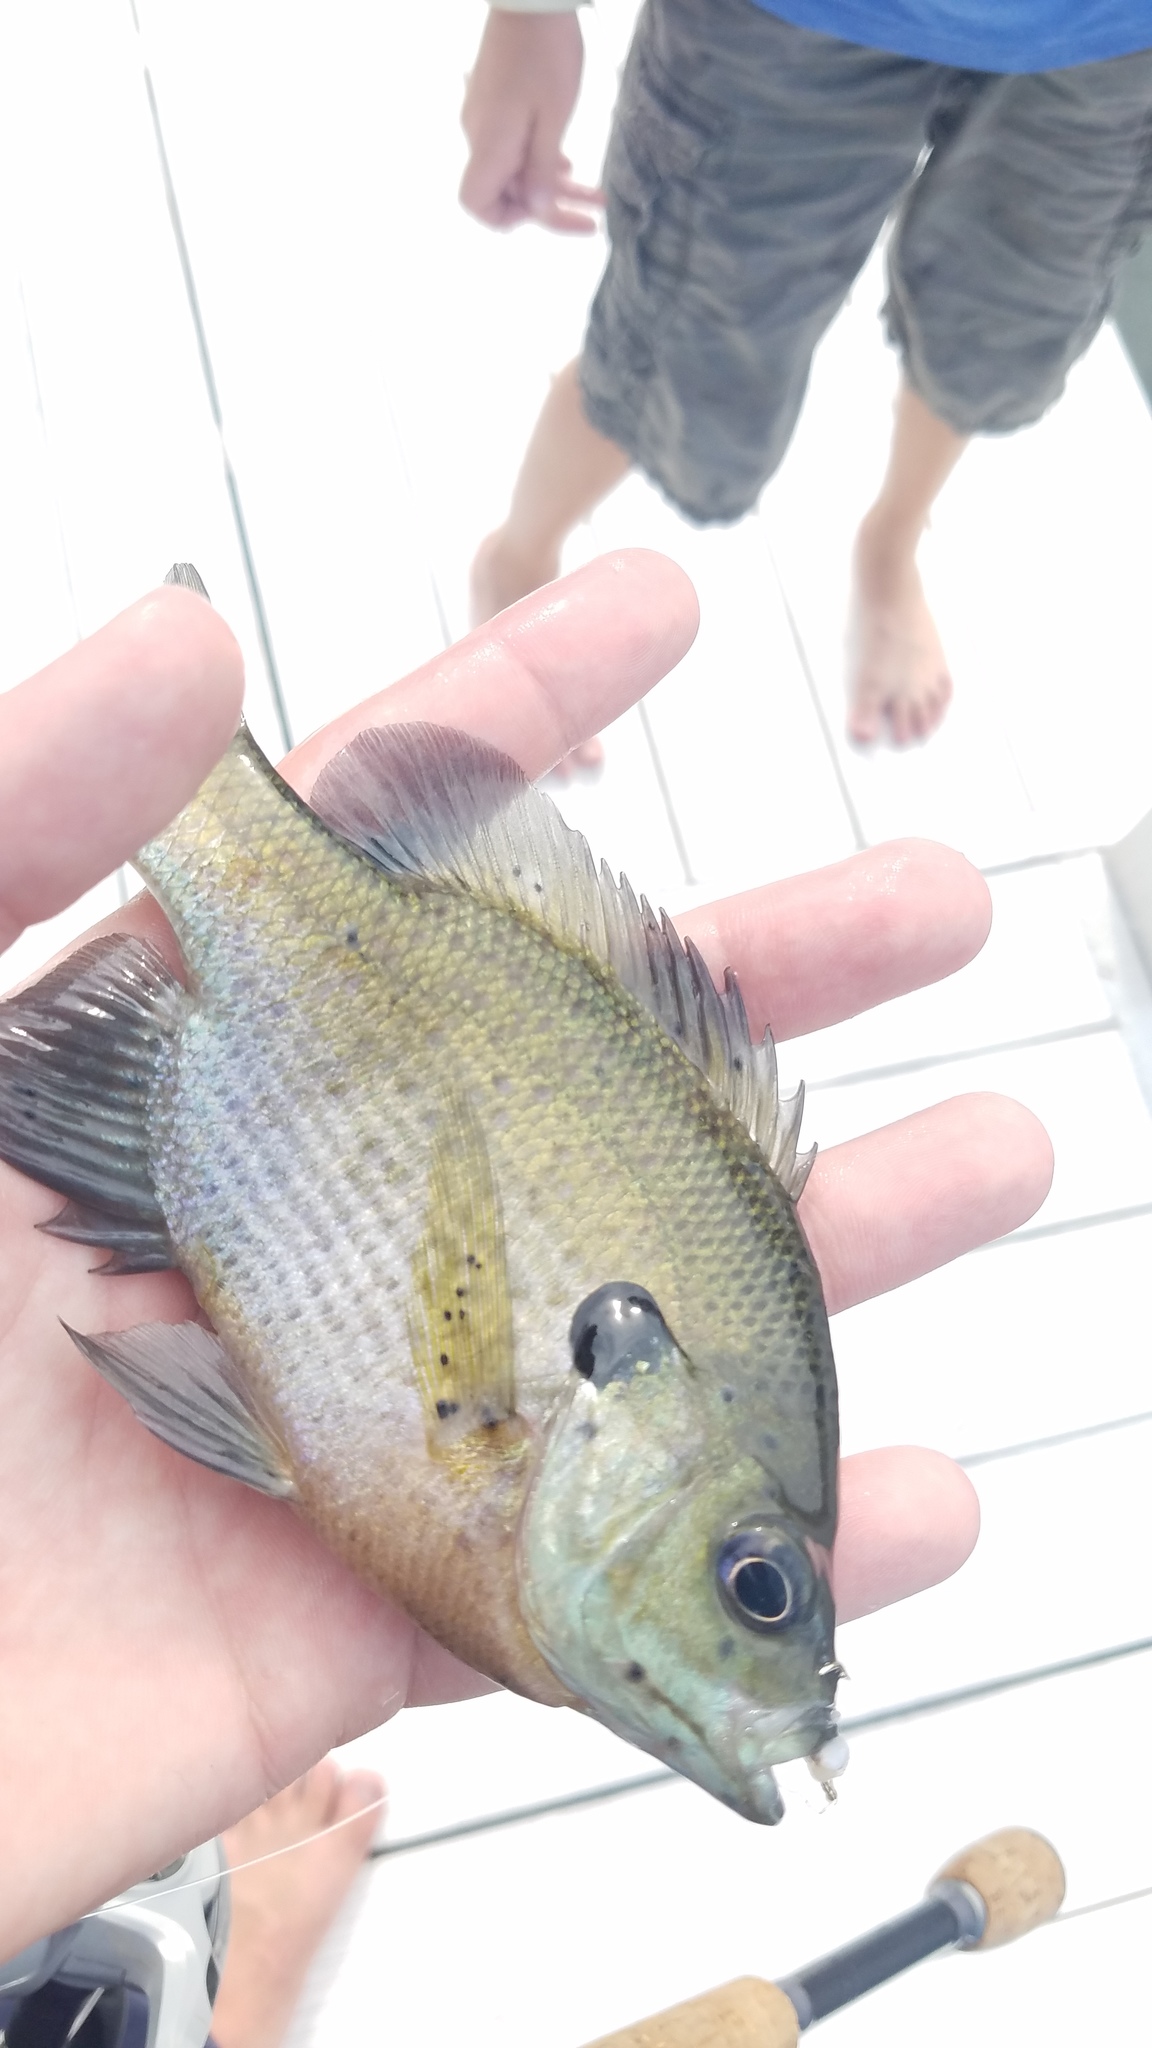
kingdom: Animalia
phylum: Chordata
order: Perciformes
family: Centrarchidae
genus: Lepomis
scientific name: Lepomis macrochirus
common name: Bluegill
